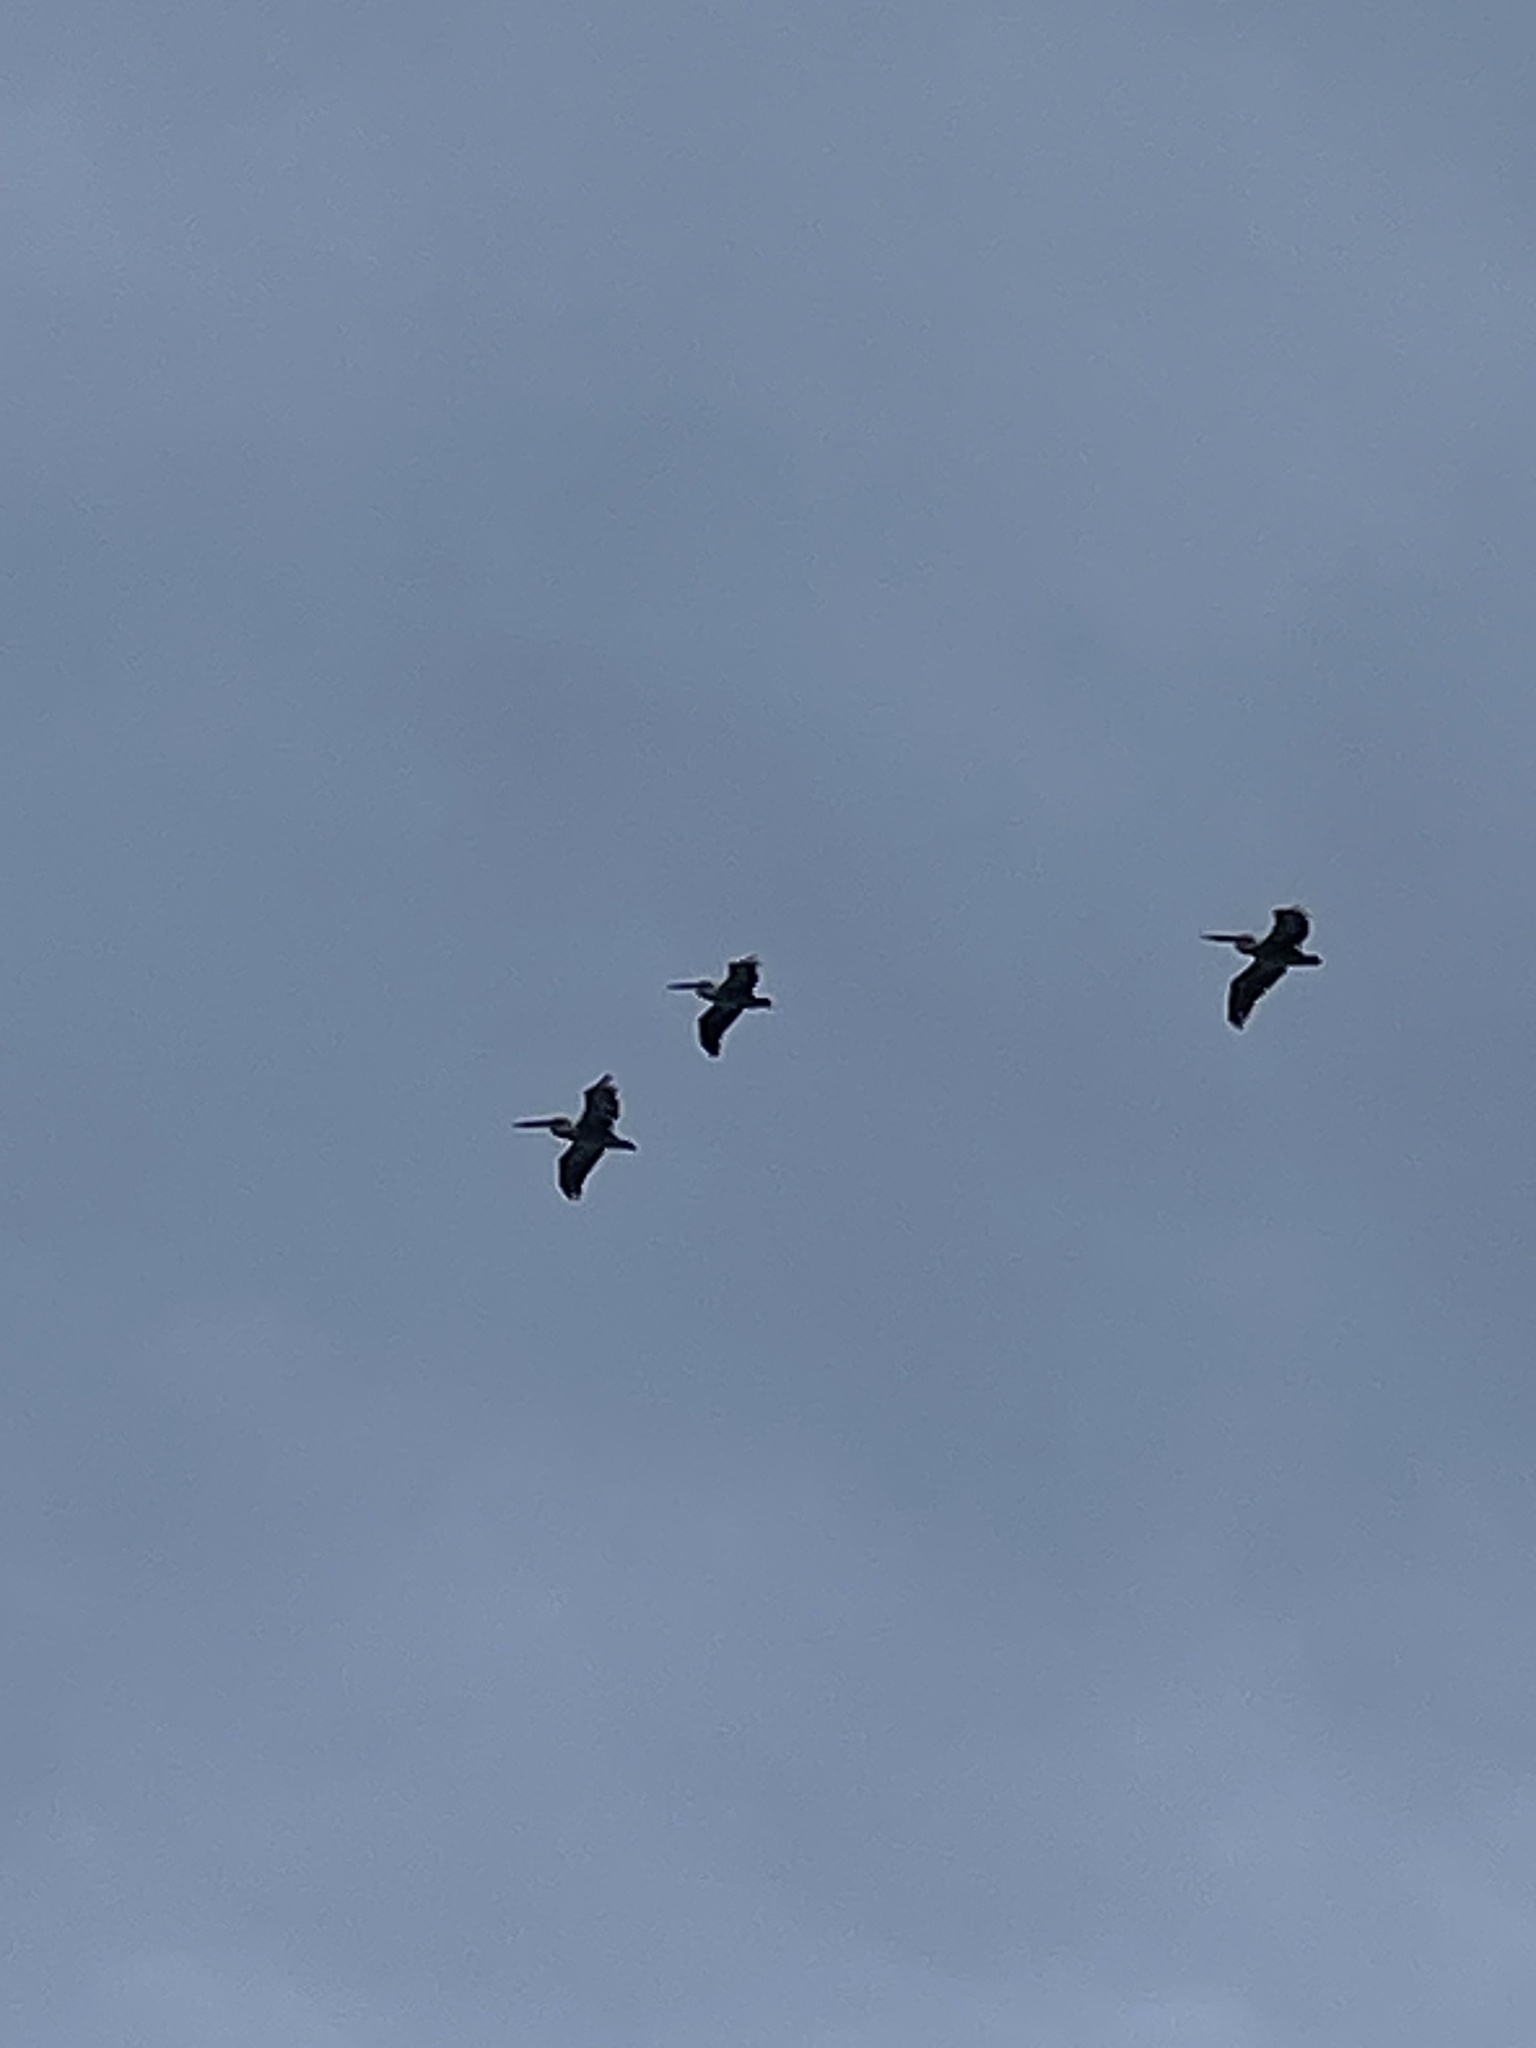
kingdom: Animalia
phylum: Chordata
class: Aves
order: Pelecaniformes
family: Pelecanidae
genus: Pelecanus
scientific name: Pelecanus conspicillatus
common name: Australian pelican
